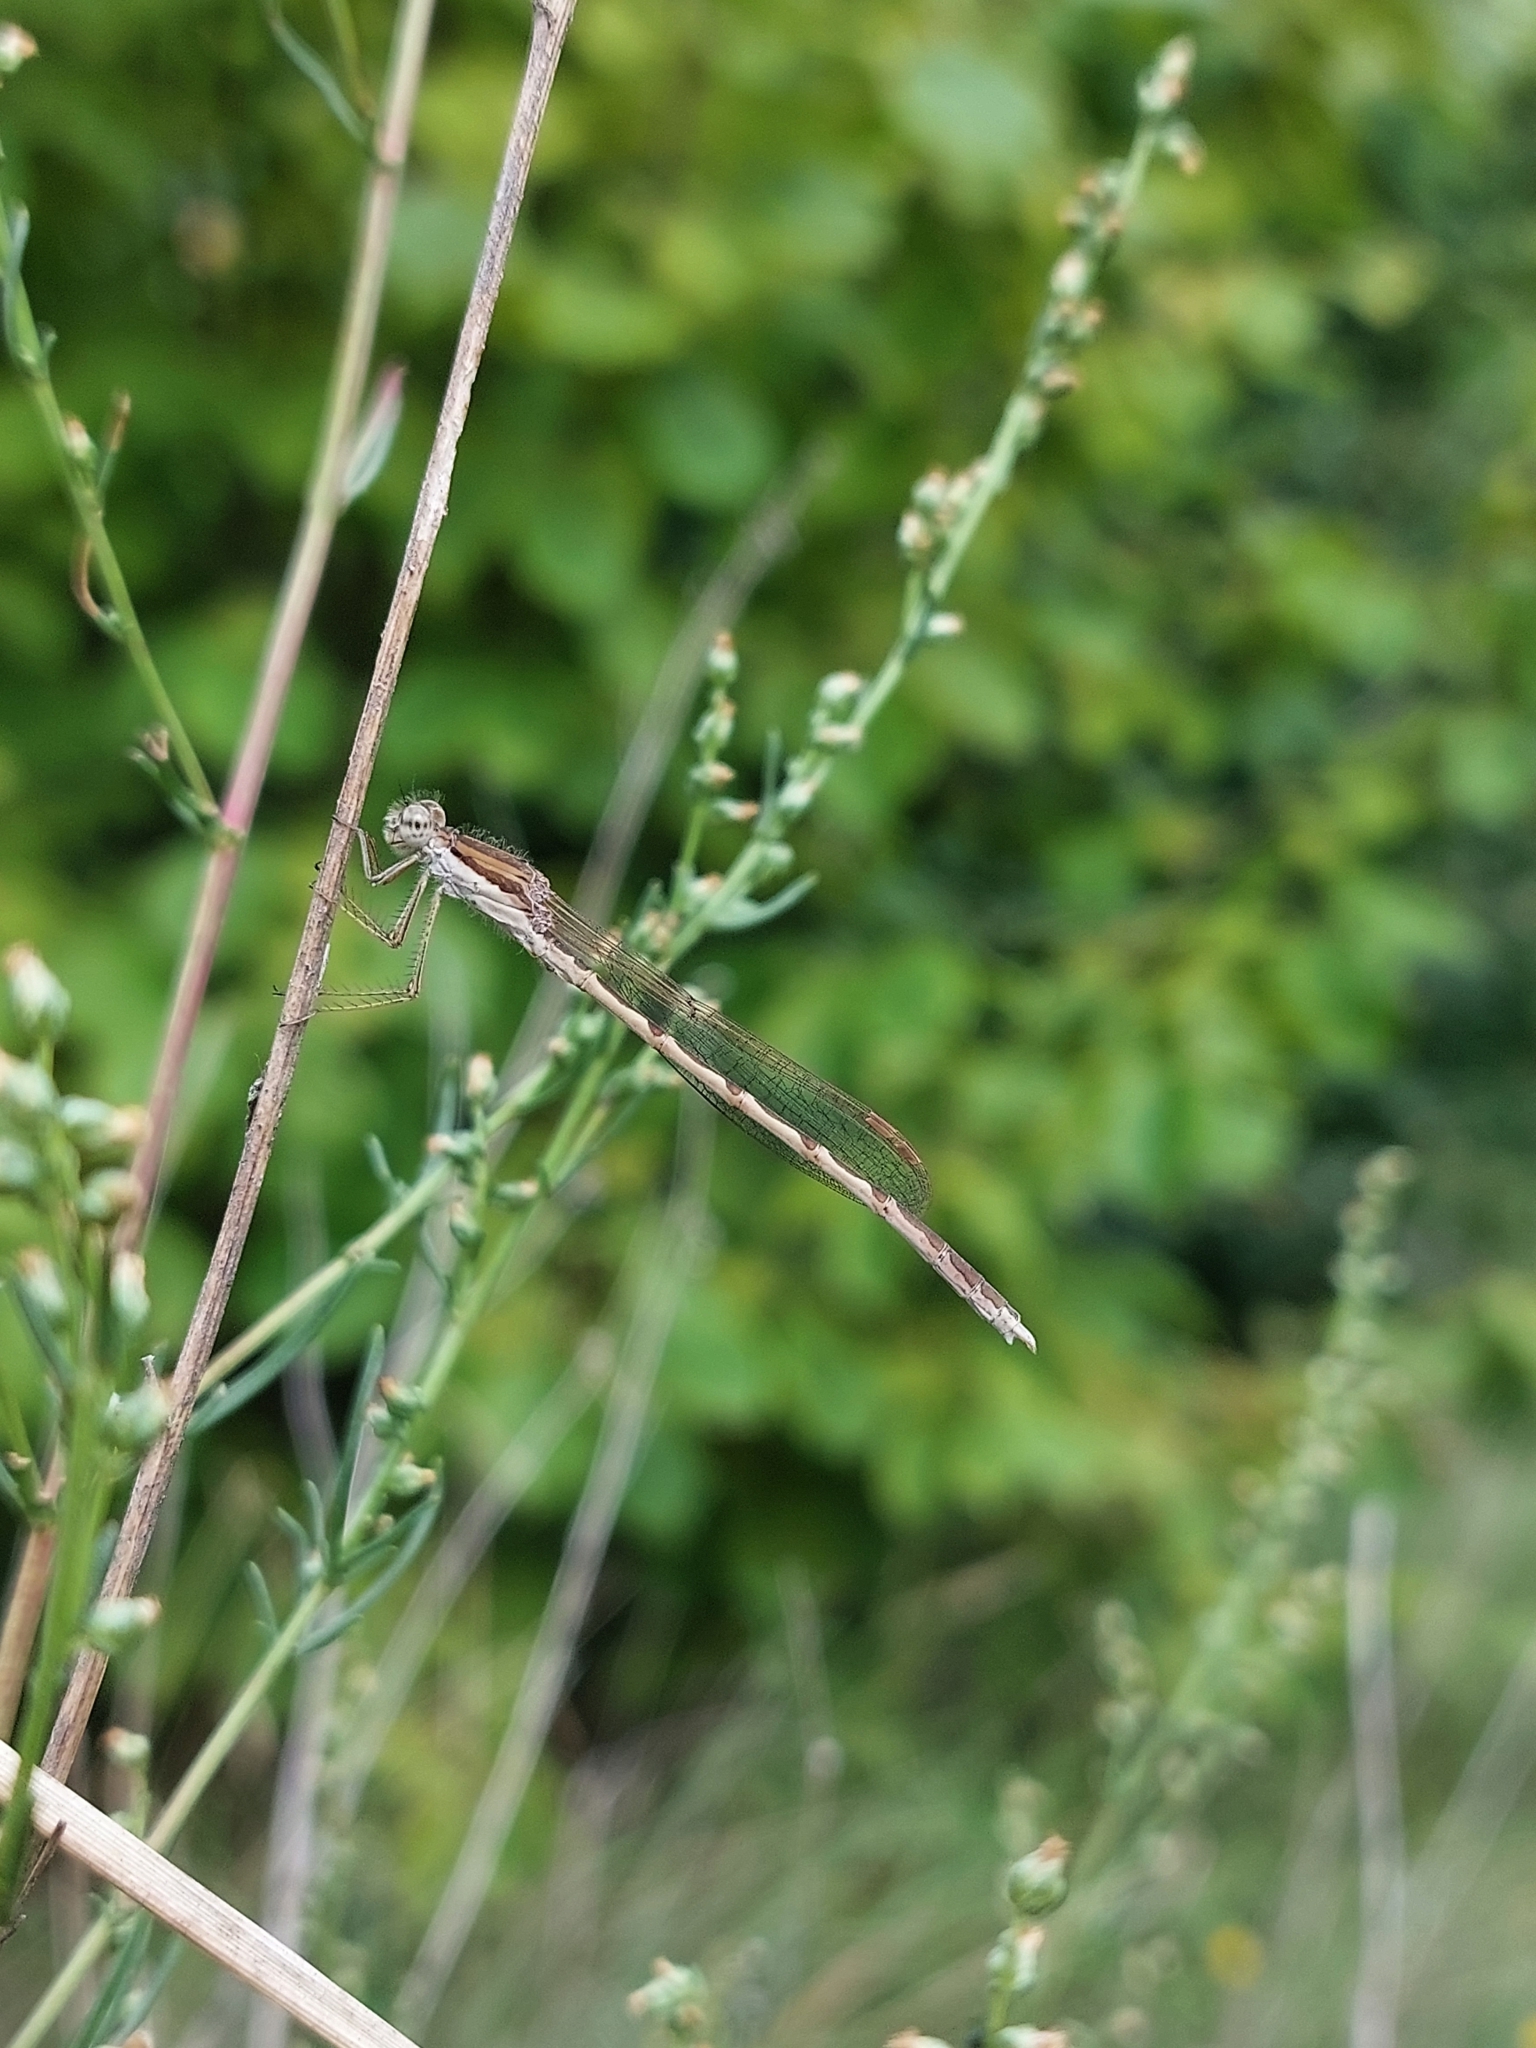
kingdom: Animalia
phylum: Arthropoda
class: Insecta
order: Odonata
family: Lestidae
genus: Sympecma
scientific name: Sympecma fusca
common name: Common winter damsel
